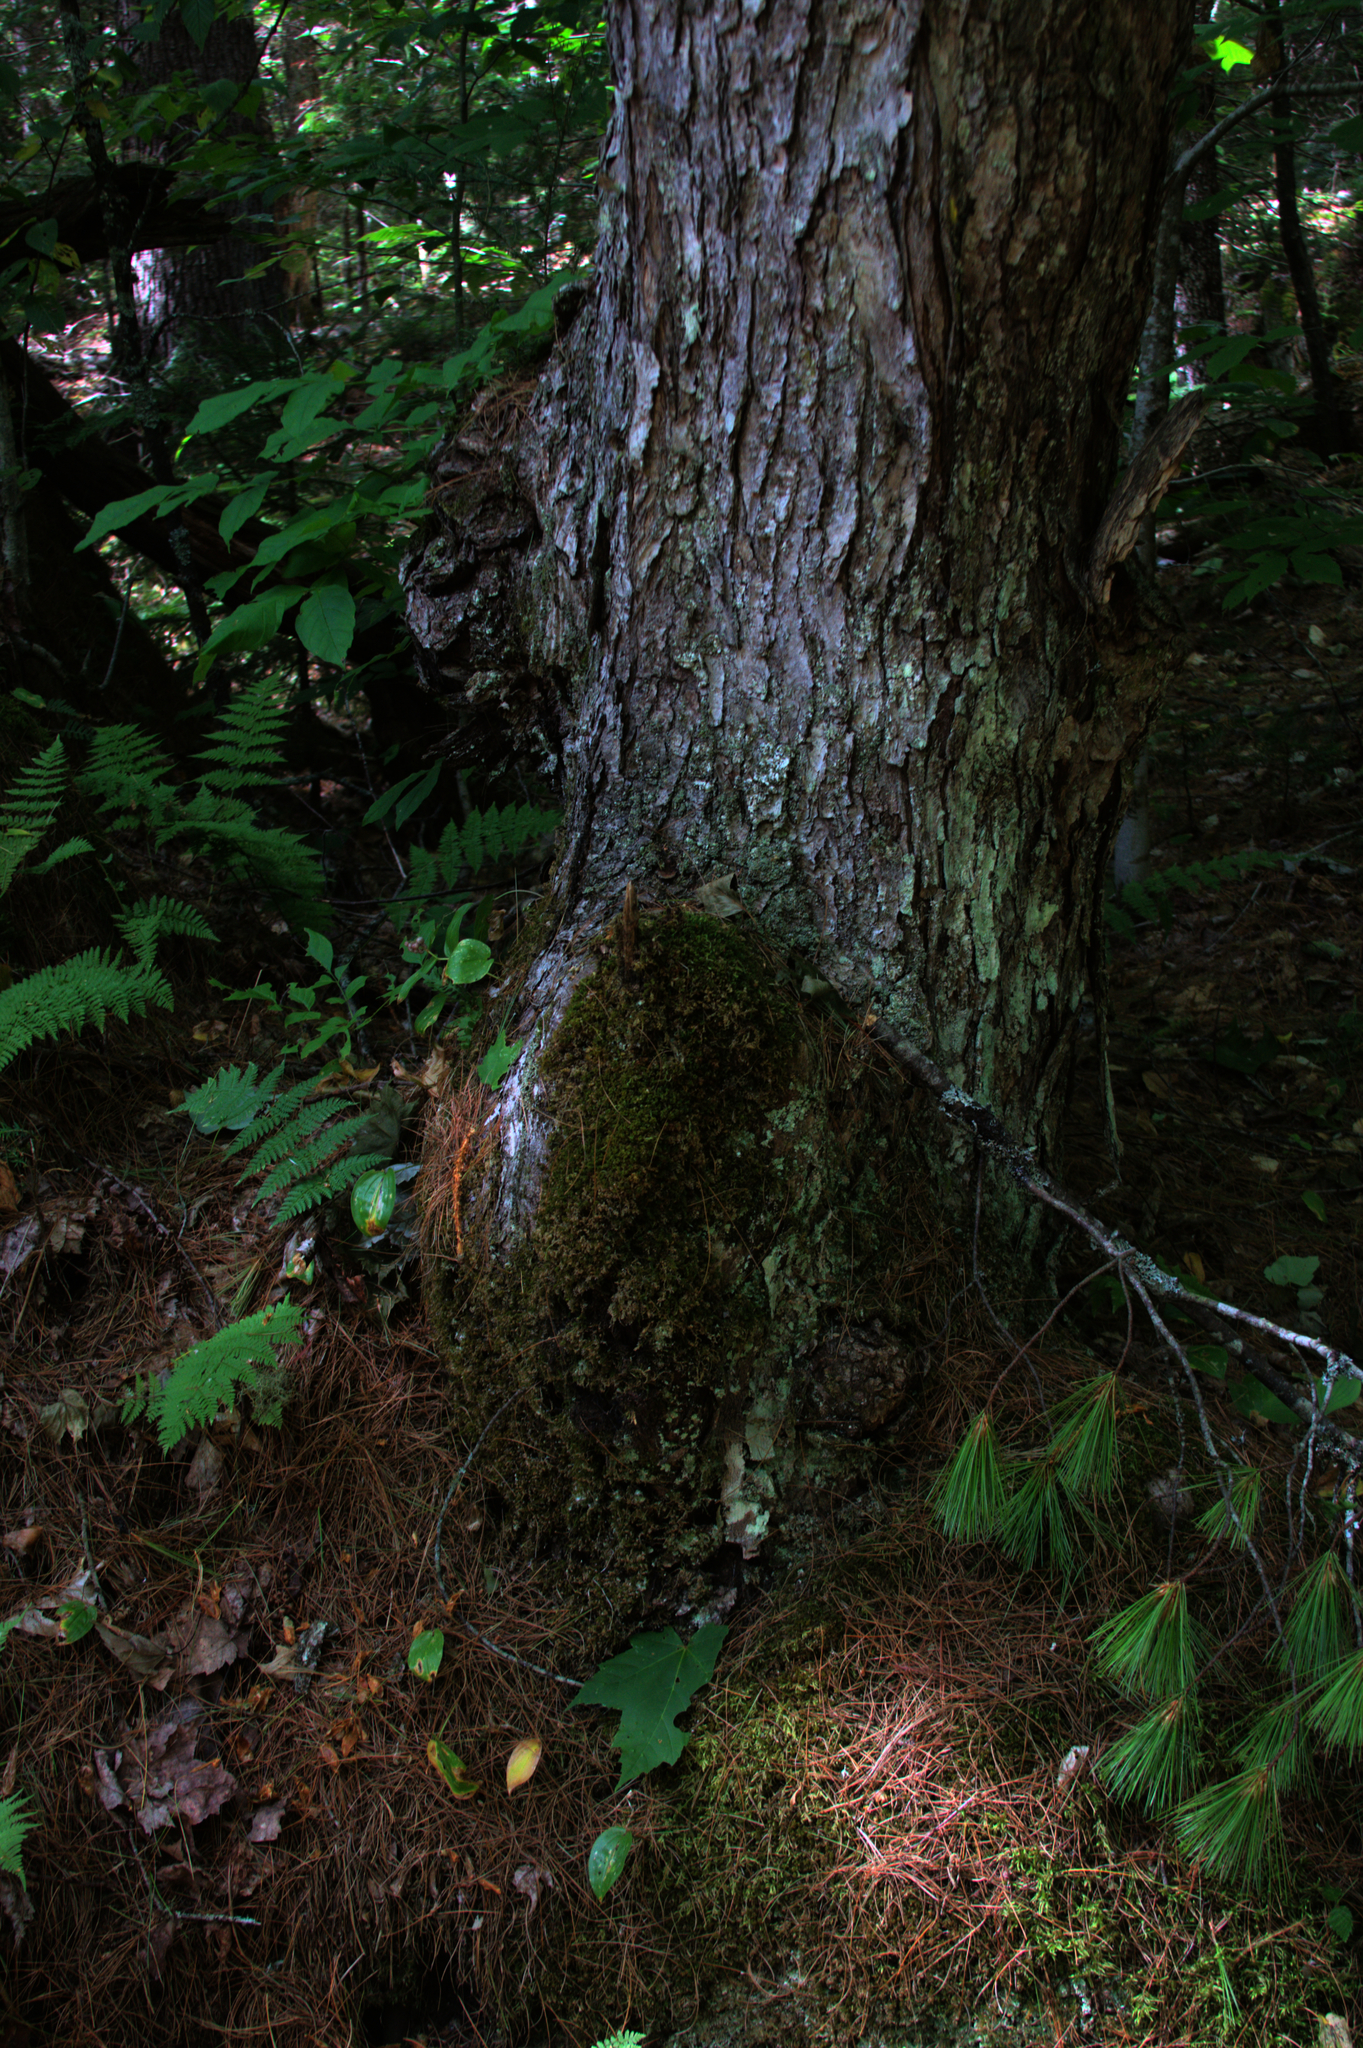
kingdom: Plantae
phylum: Tracheophyta
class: Magnoliopsida
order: Sapindales
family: Sapindaceae
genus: Acer
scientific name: Acer rubrum
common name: Red maple
